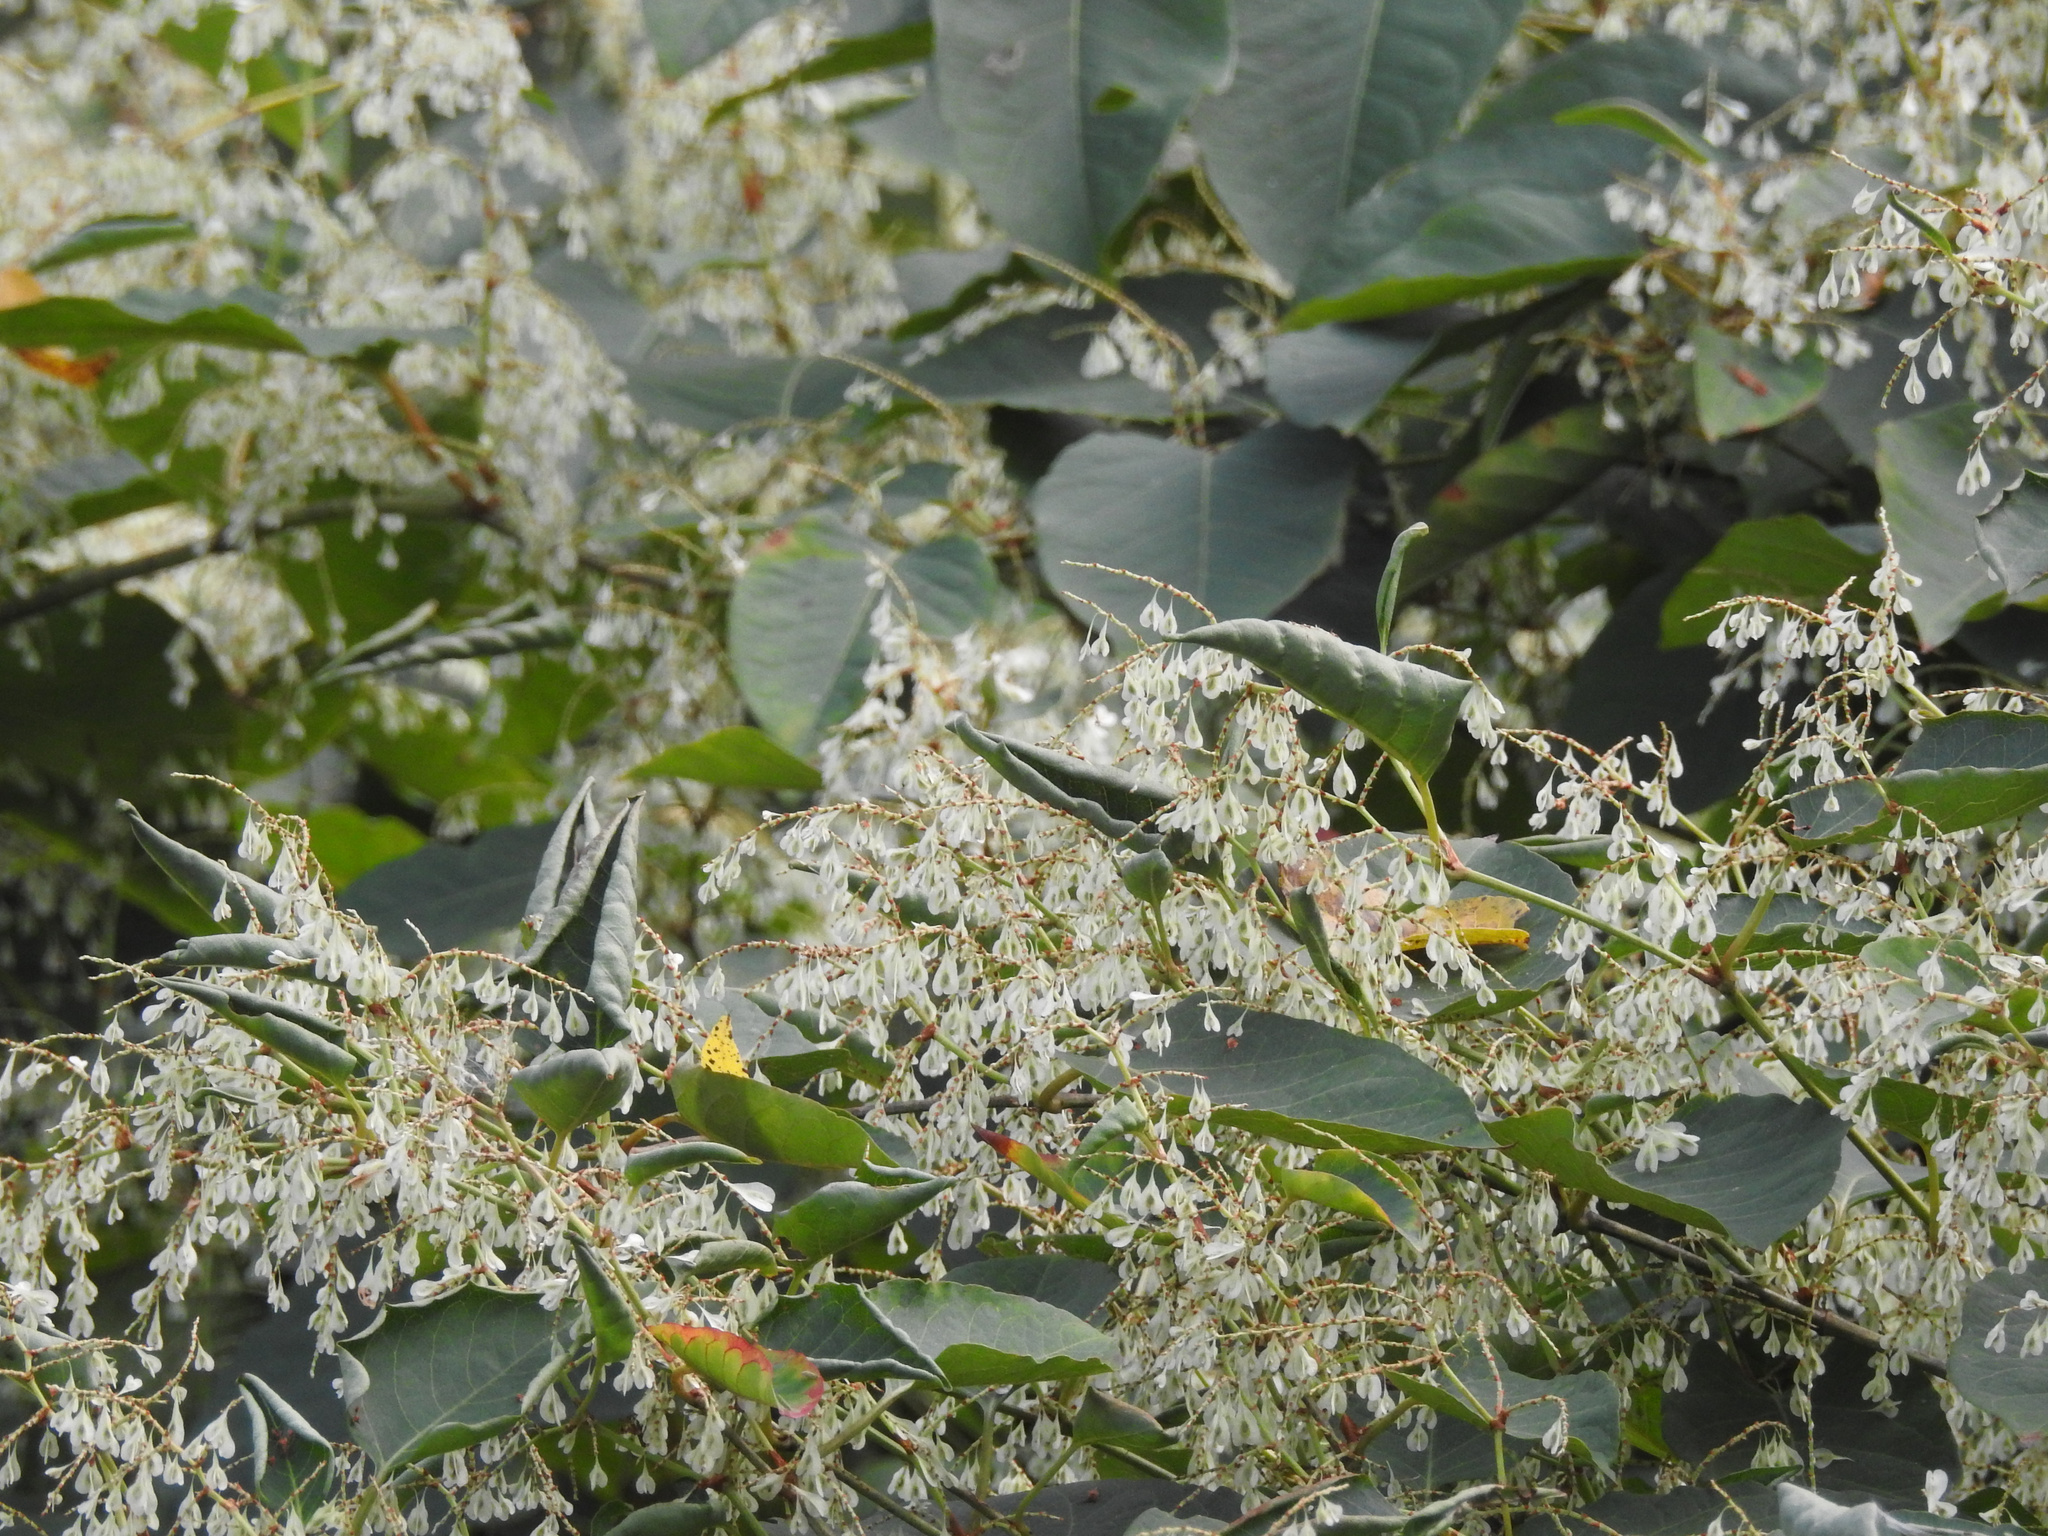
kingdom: Plantae
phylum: Tracheophyta
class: Magnoliopsida
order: Caryophyllales
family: Polygonaceae
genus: Reynoutria
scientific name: Reynoutria japonica
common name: Japanese knotweed
